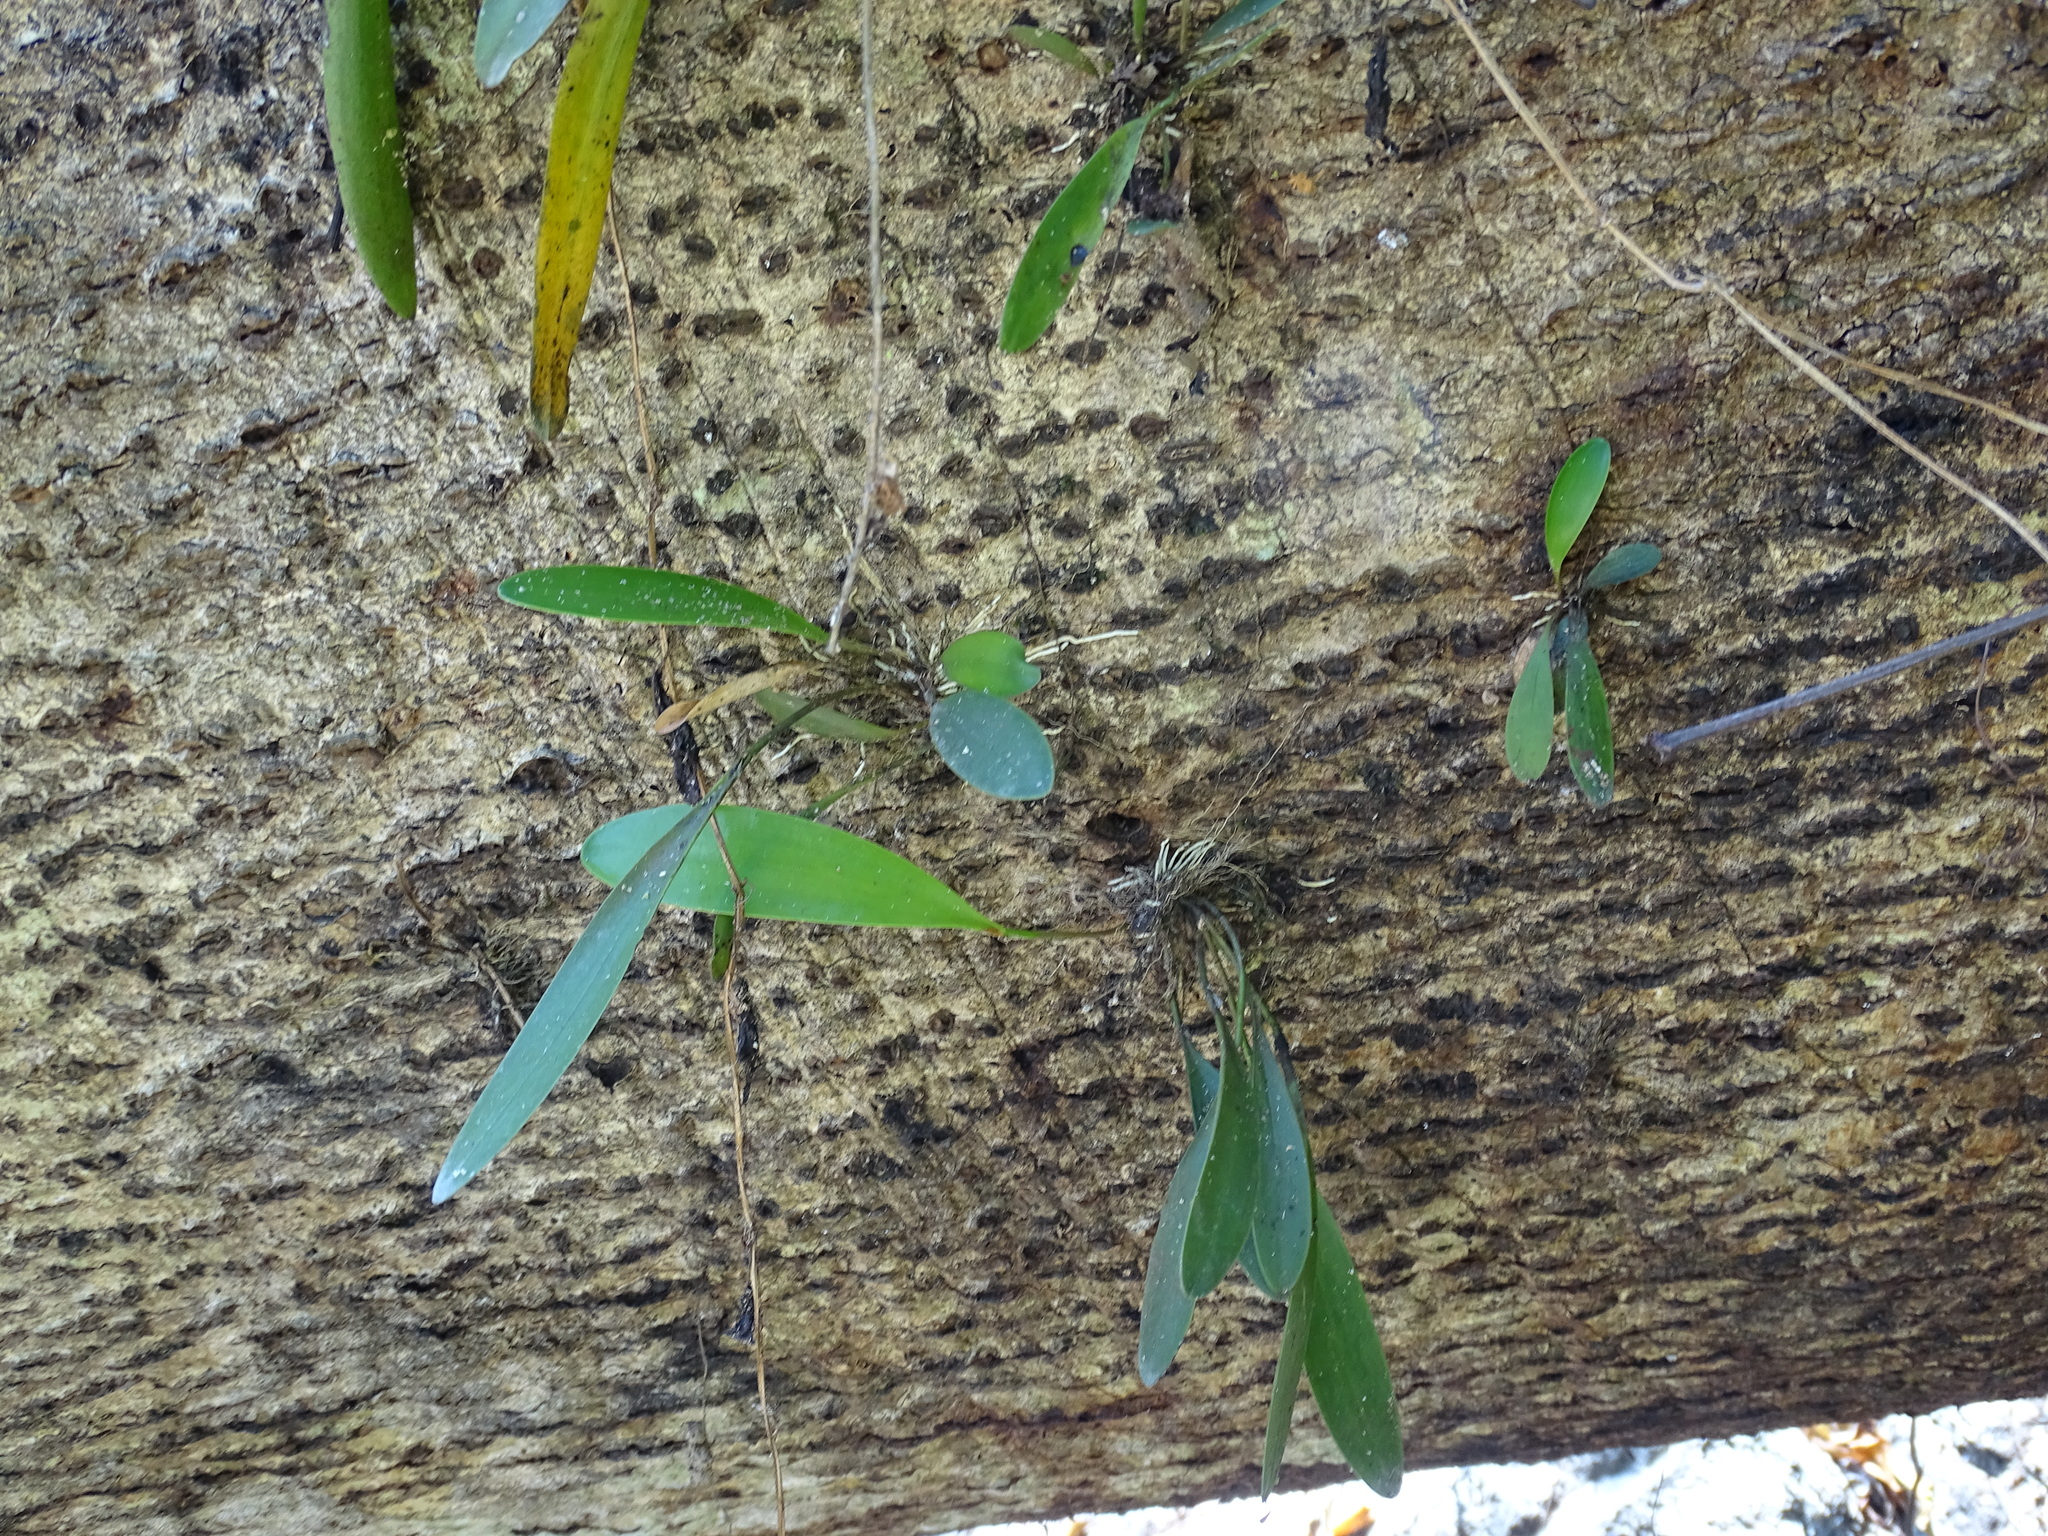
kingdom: Plantae
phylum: Tracheophyta
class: Liliopsida
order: Asparagales
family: Orchidaceae
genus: Pleurothallis
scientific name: Pleurothallis quadrifida
